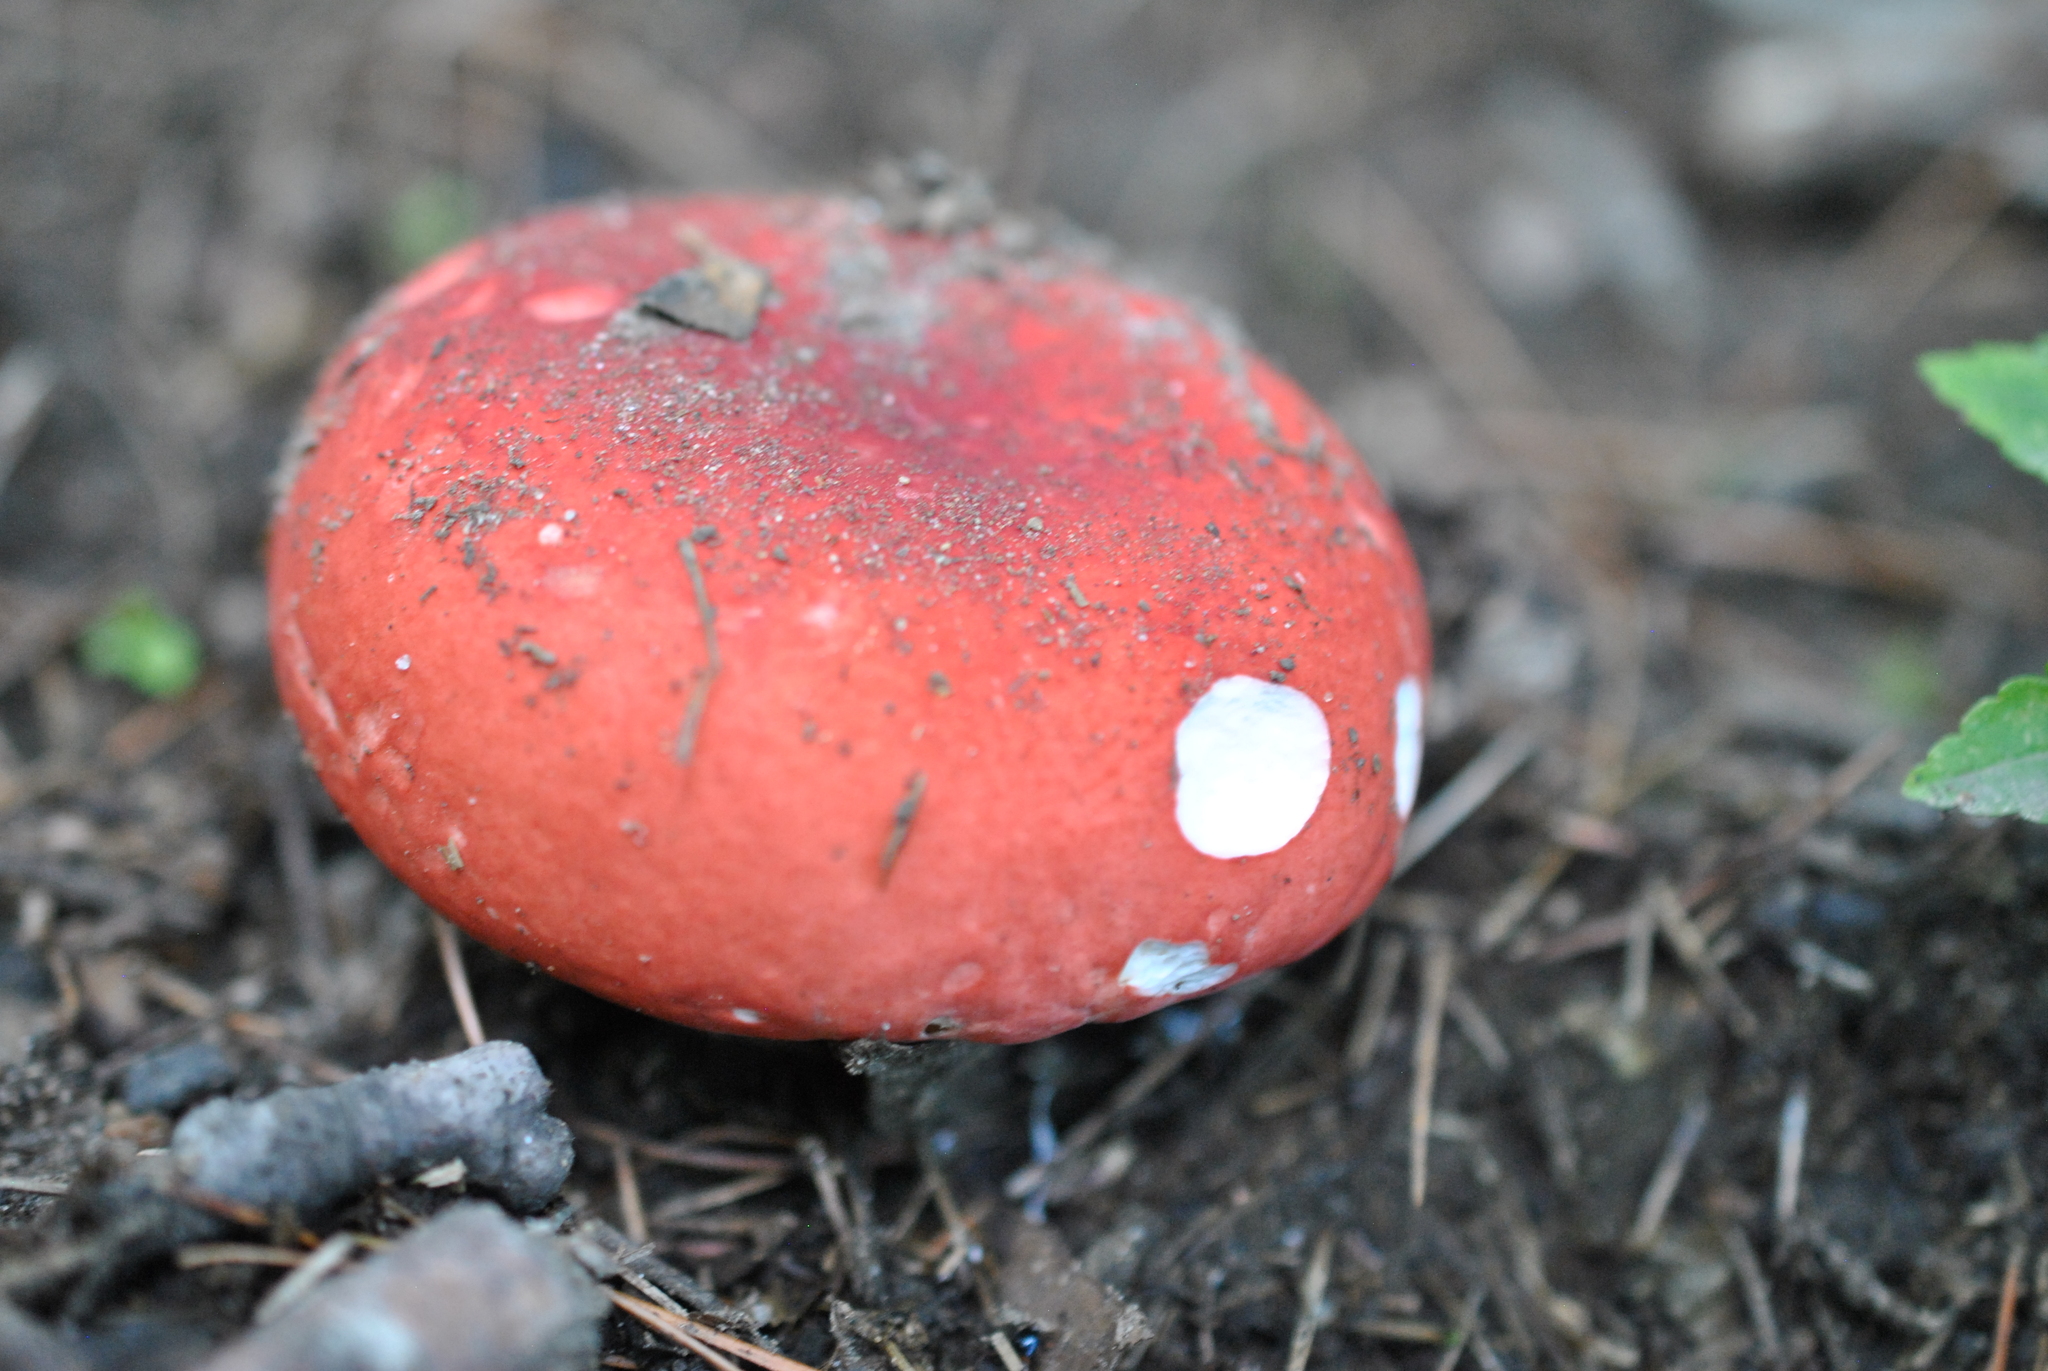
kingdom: Fungi
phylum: Basidiomycota
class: Agaricomycetes
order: Russulales
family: Russulaceae
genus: Russula
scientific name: Russula
